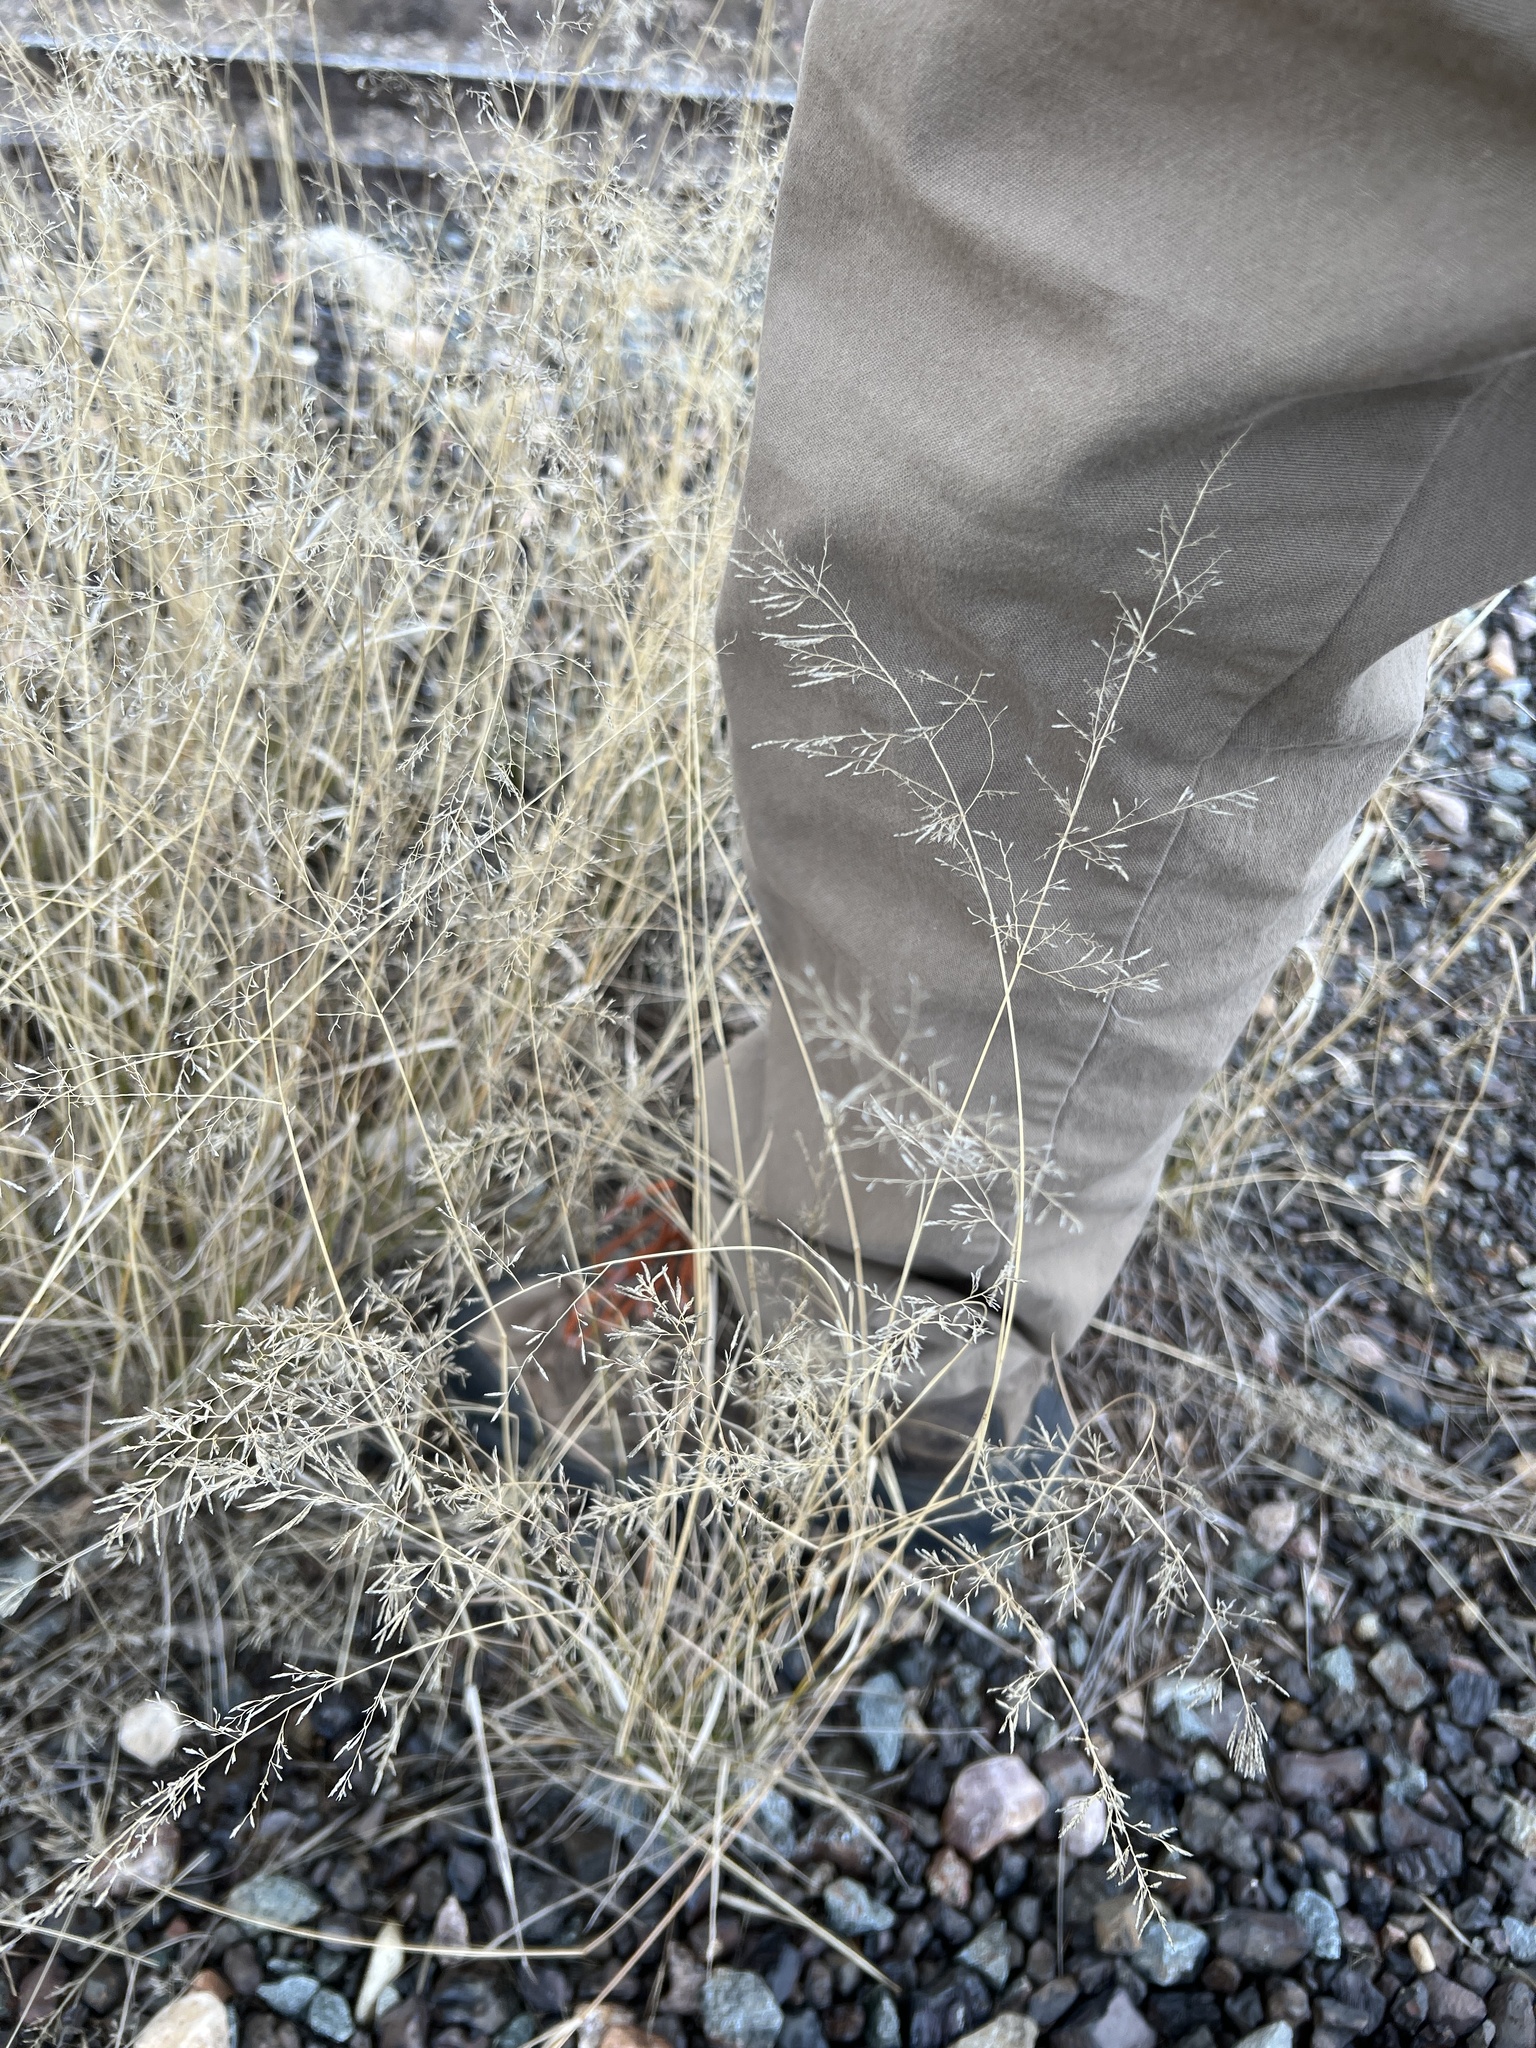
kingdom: Plantae
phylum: Tracheophyta
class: Liliopsida
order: Poales
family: Poaceae
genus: Eragrostis
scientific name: Eragrostis lehmanniana
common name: Lehmann lovegrass
